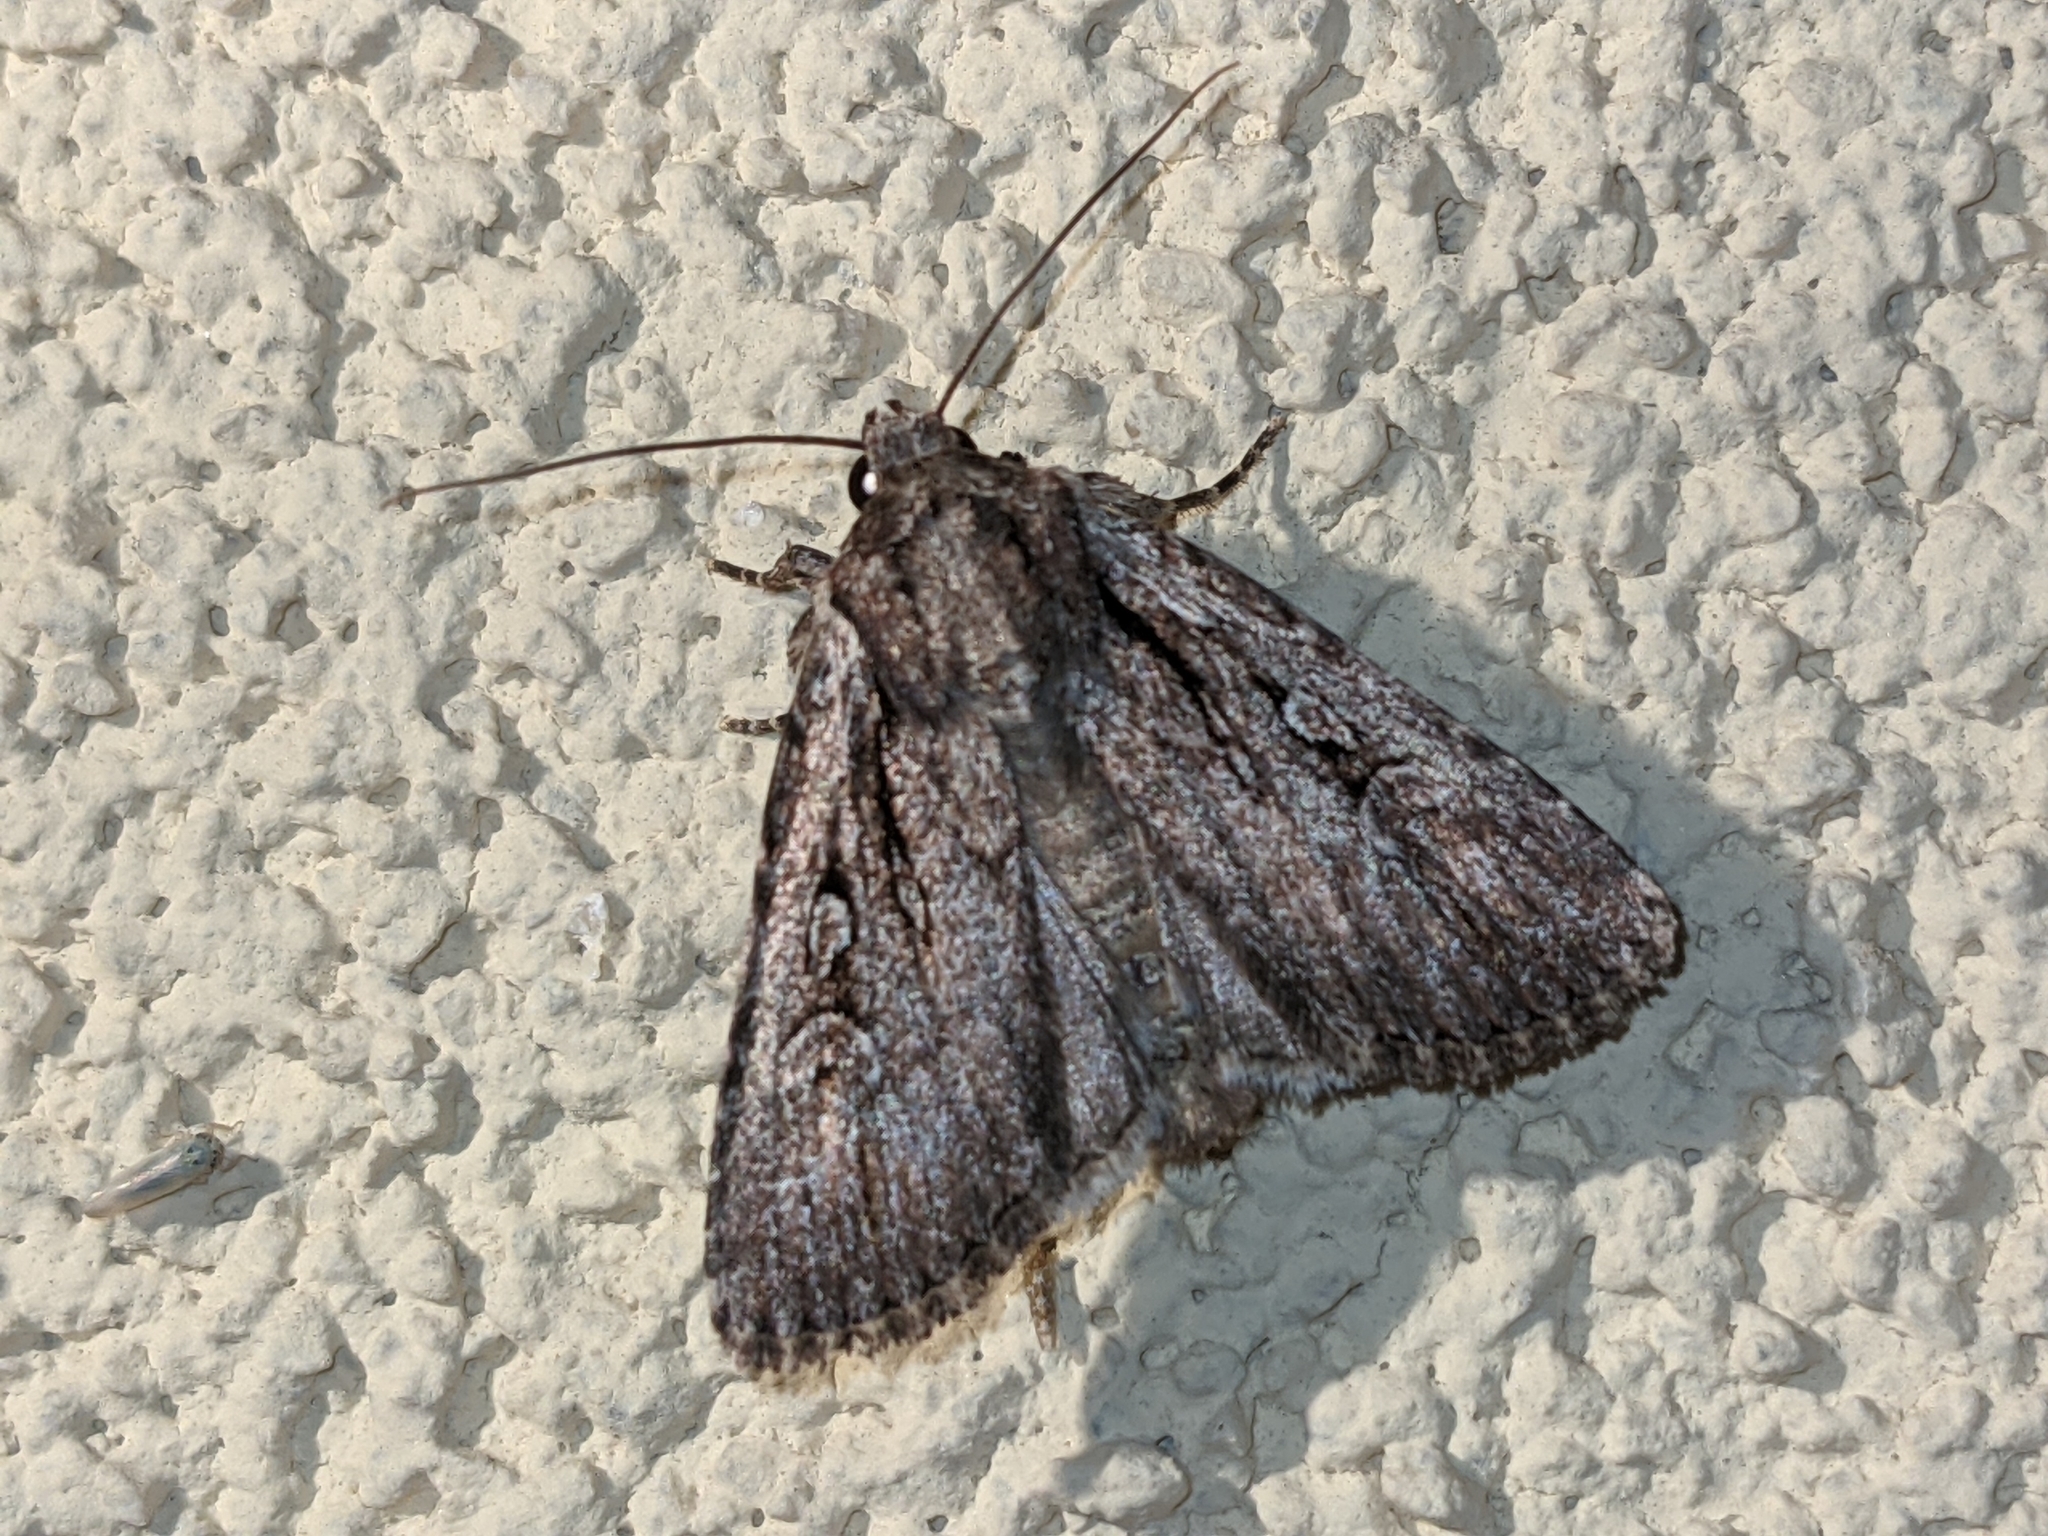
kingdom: Animalia
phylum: Arthropoda
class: Insecta
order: Lepidoptera
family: Noctuidae
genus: Yigoga
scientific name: Yigoga signifera
